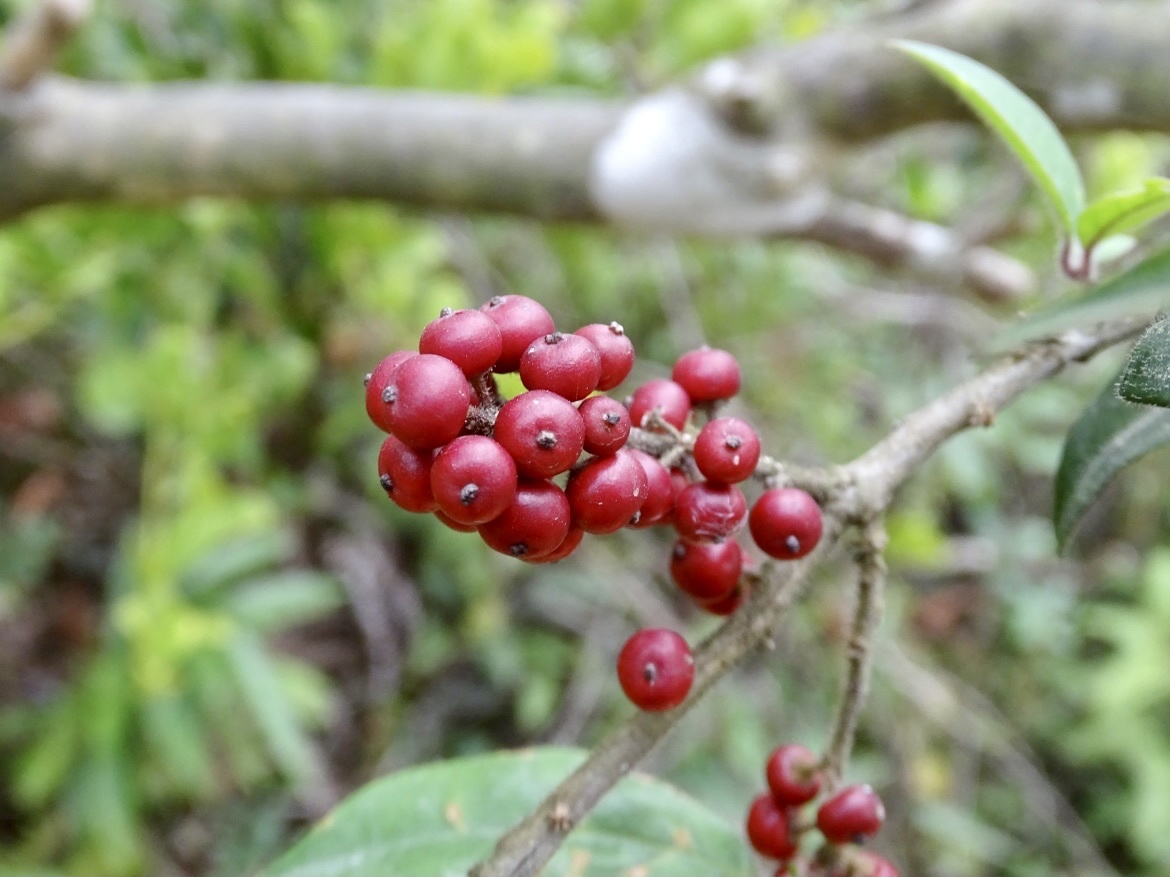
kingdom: Plantae
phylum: Tracheophyta
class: Magnoliopsida
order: Aquifoliales
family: Aquifoliaceae
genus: Ilex
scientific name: Ilex rotunda
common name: Kurogane holly
